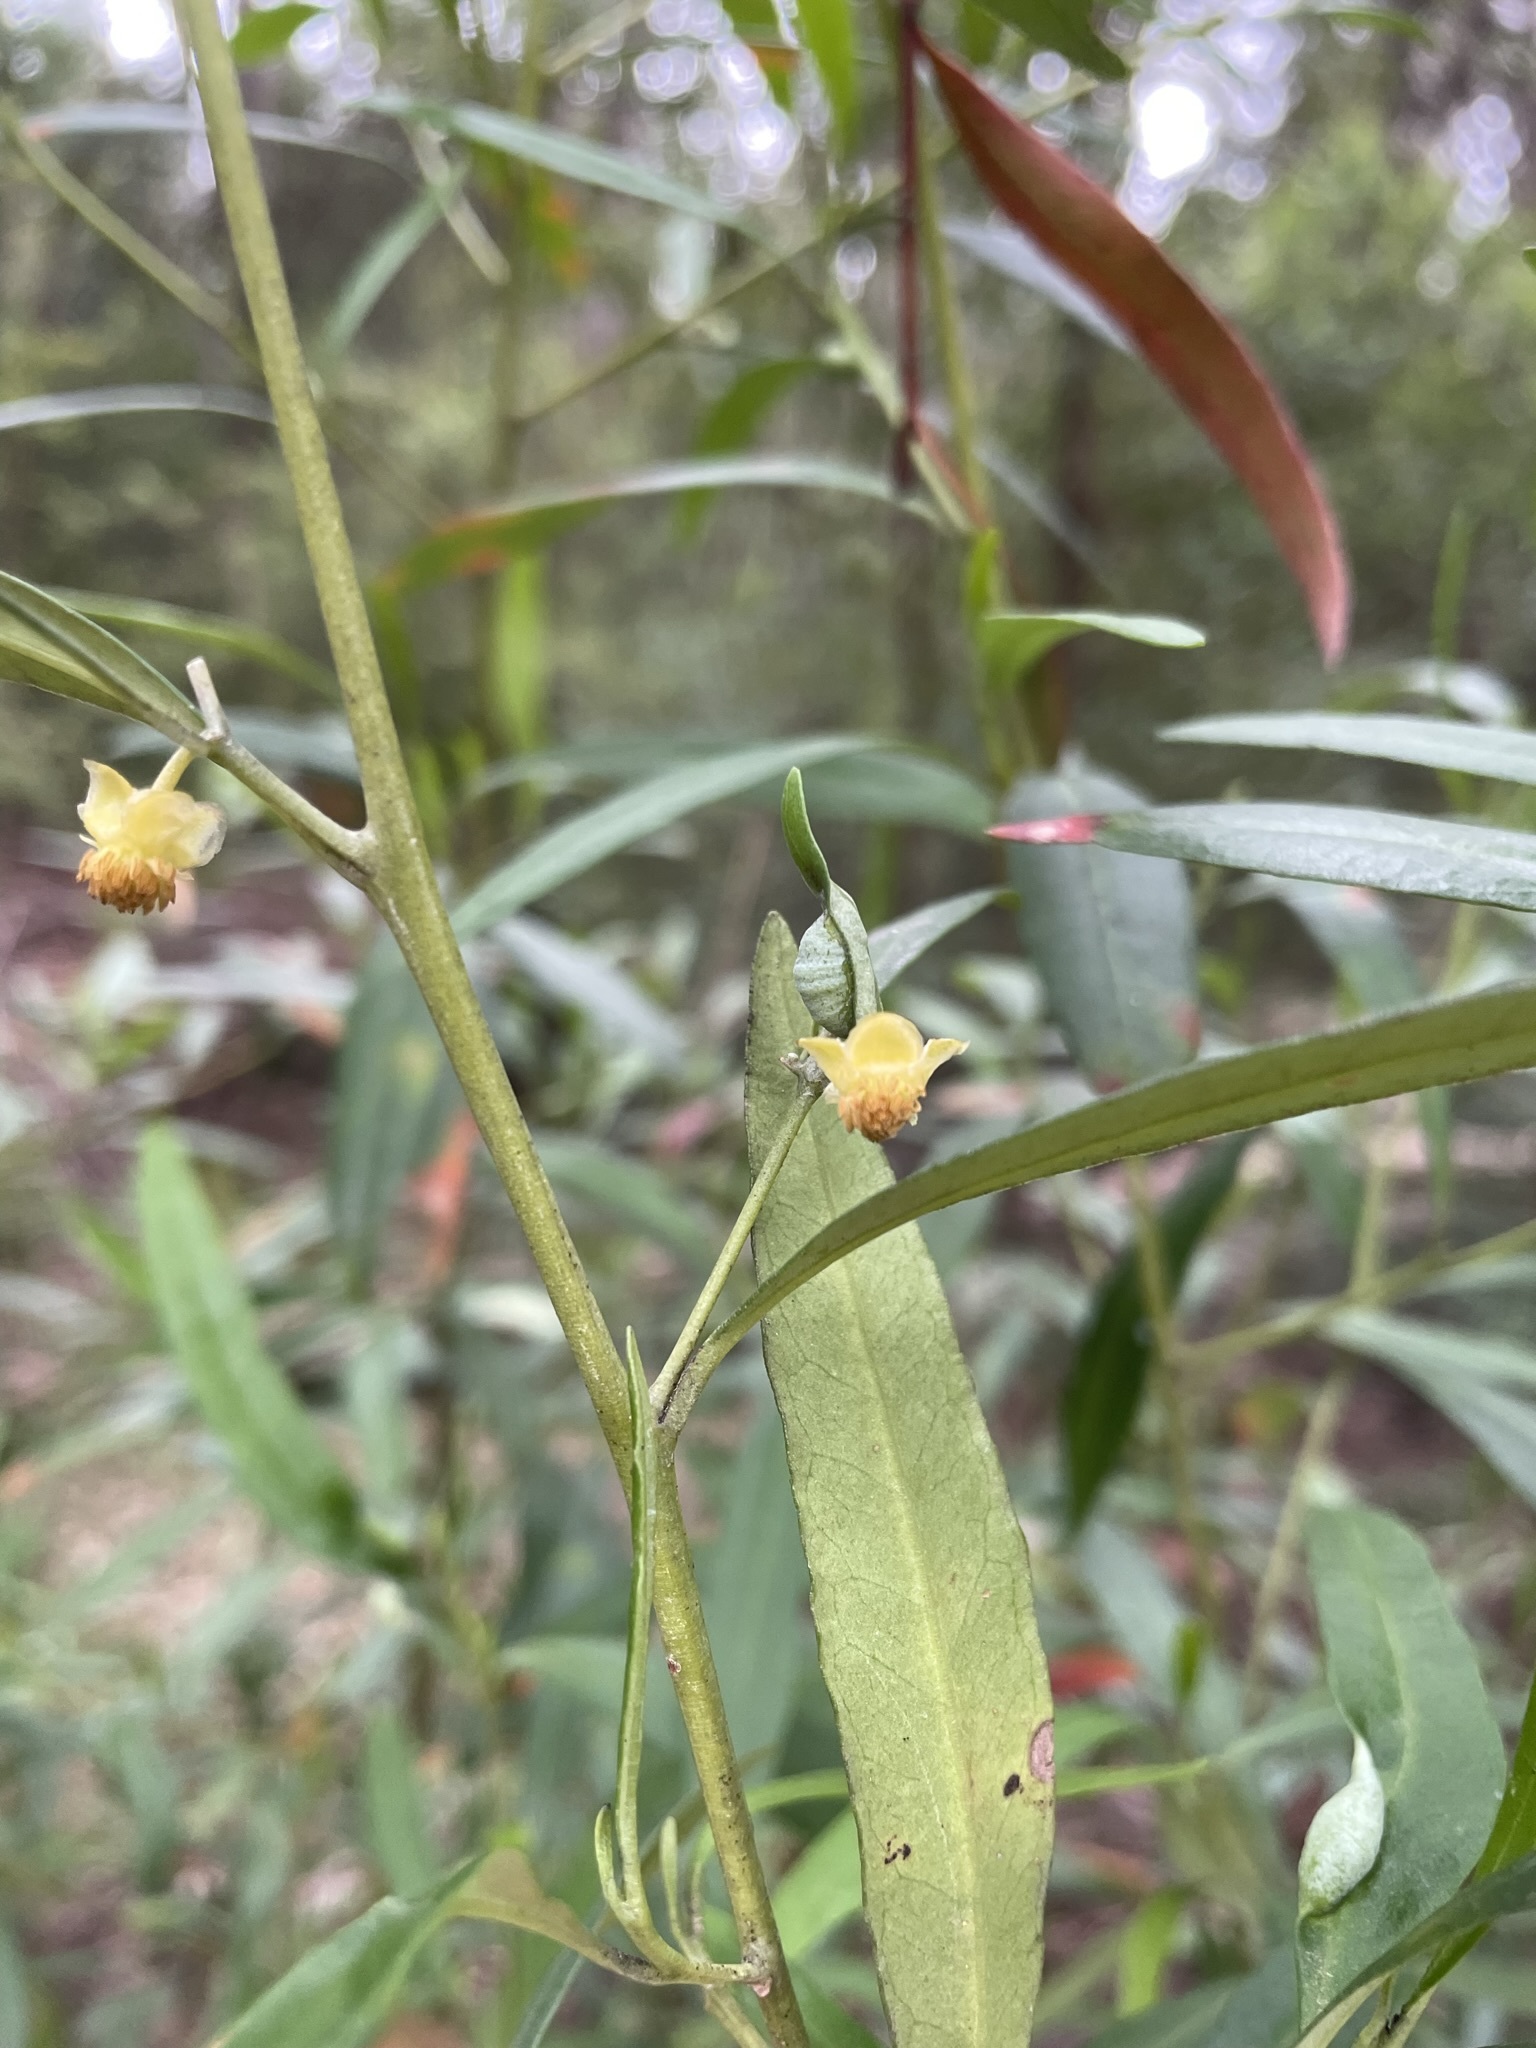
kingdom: Plantae
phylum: Tracheophyta
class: Magnoliopsida
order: Malpighiales
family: Euphorbiaceae
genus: Beyeria
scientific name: Beyeria viscosa
